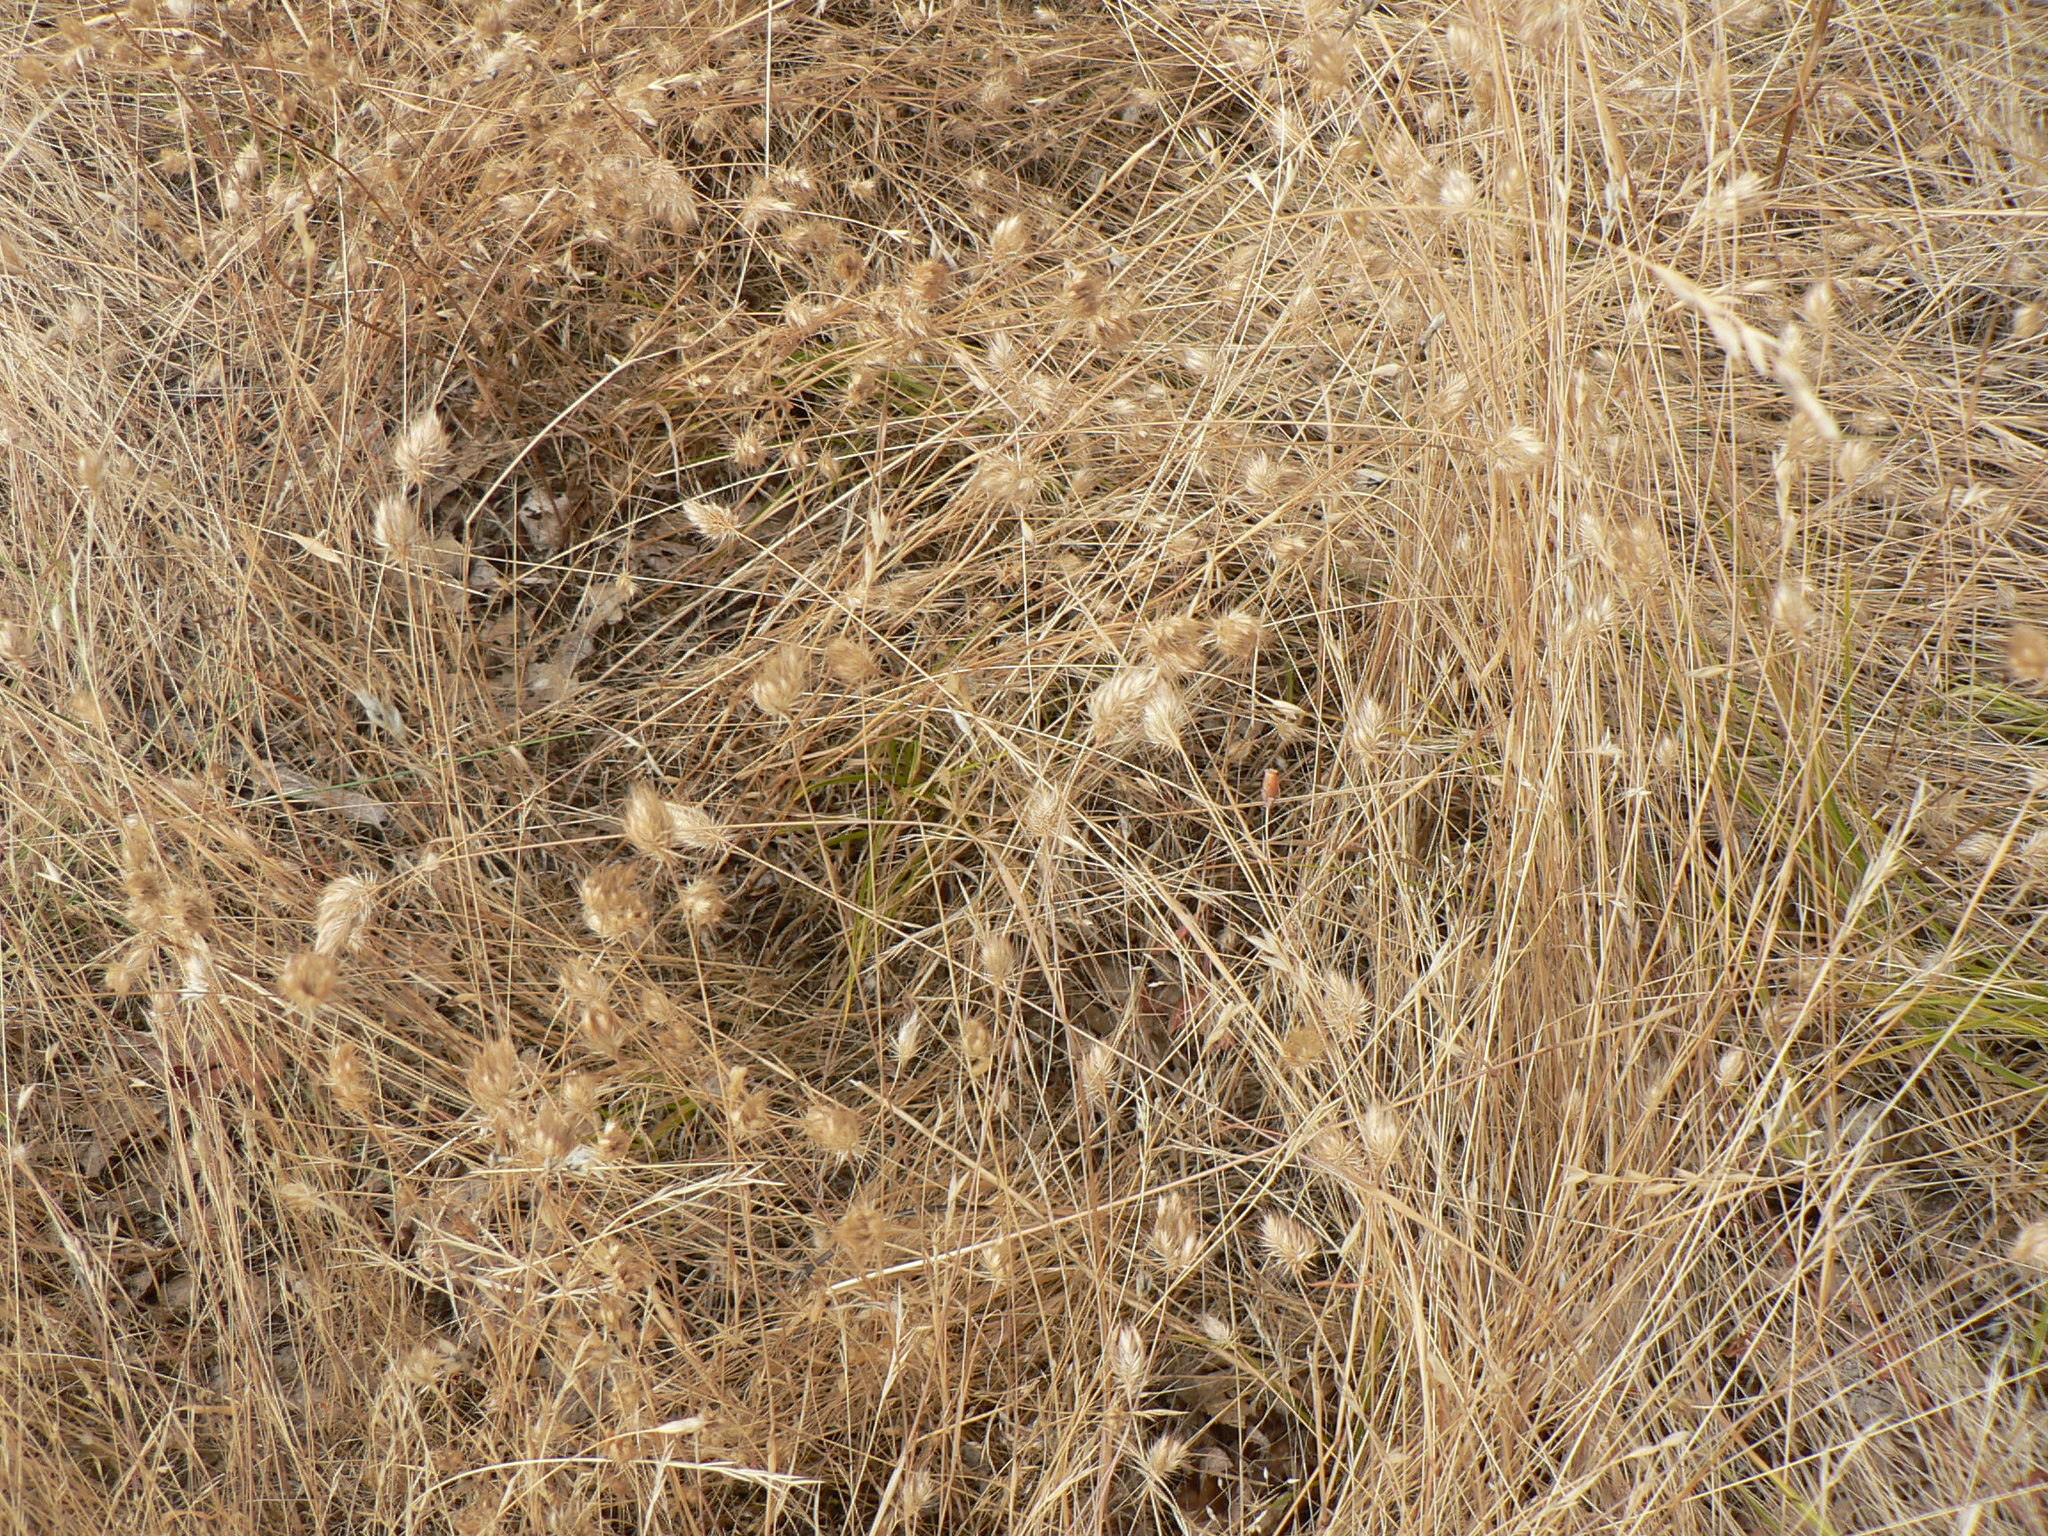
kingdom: Plantae
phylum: Tracheophyta
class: Liliopsida
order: Poales
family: Poaceae
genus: Cynosurus
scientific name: Cynosurus echinatus
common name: Rough dog's-tail
